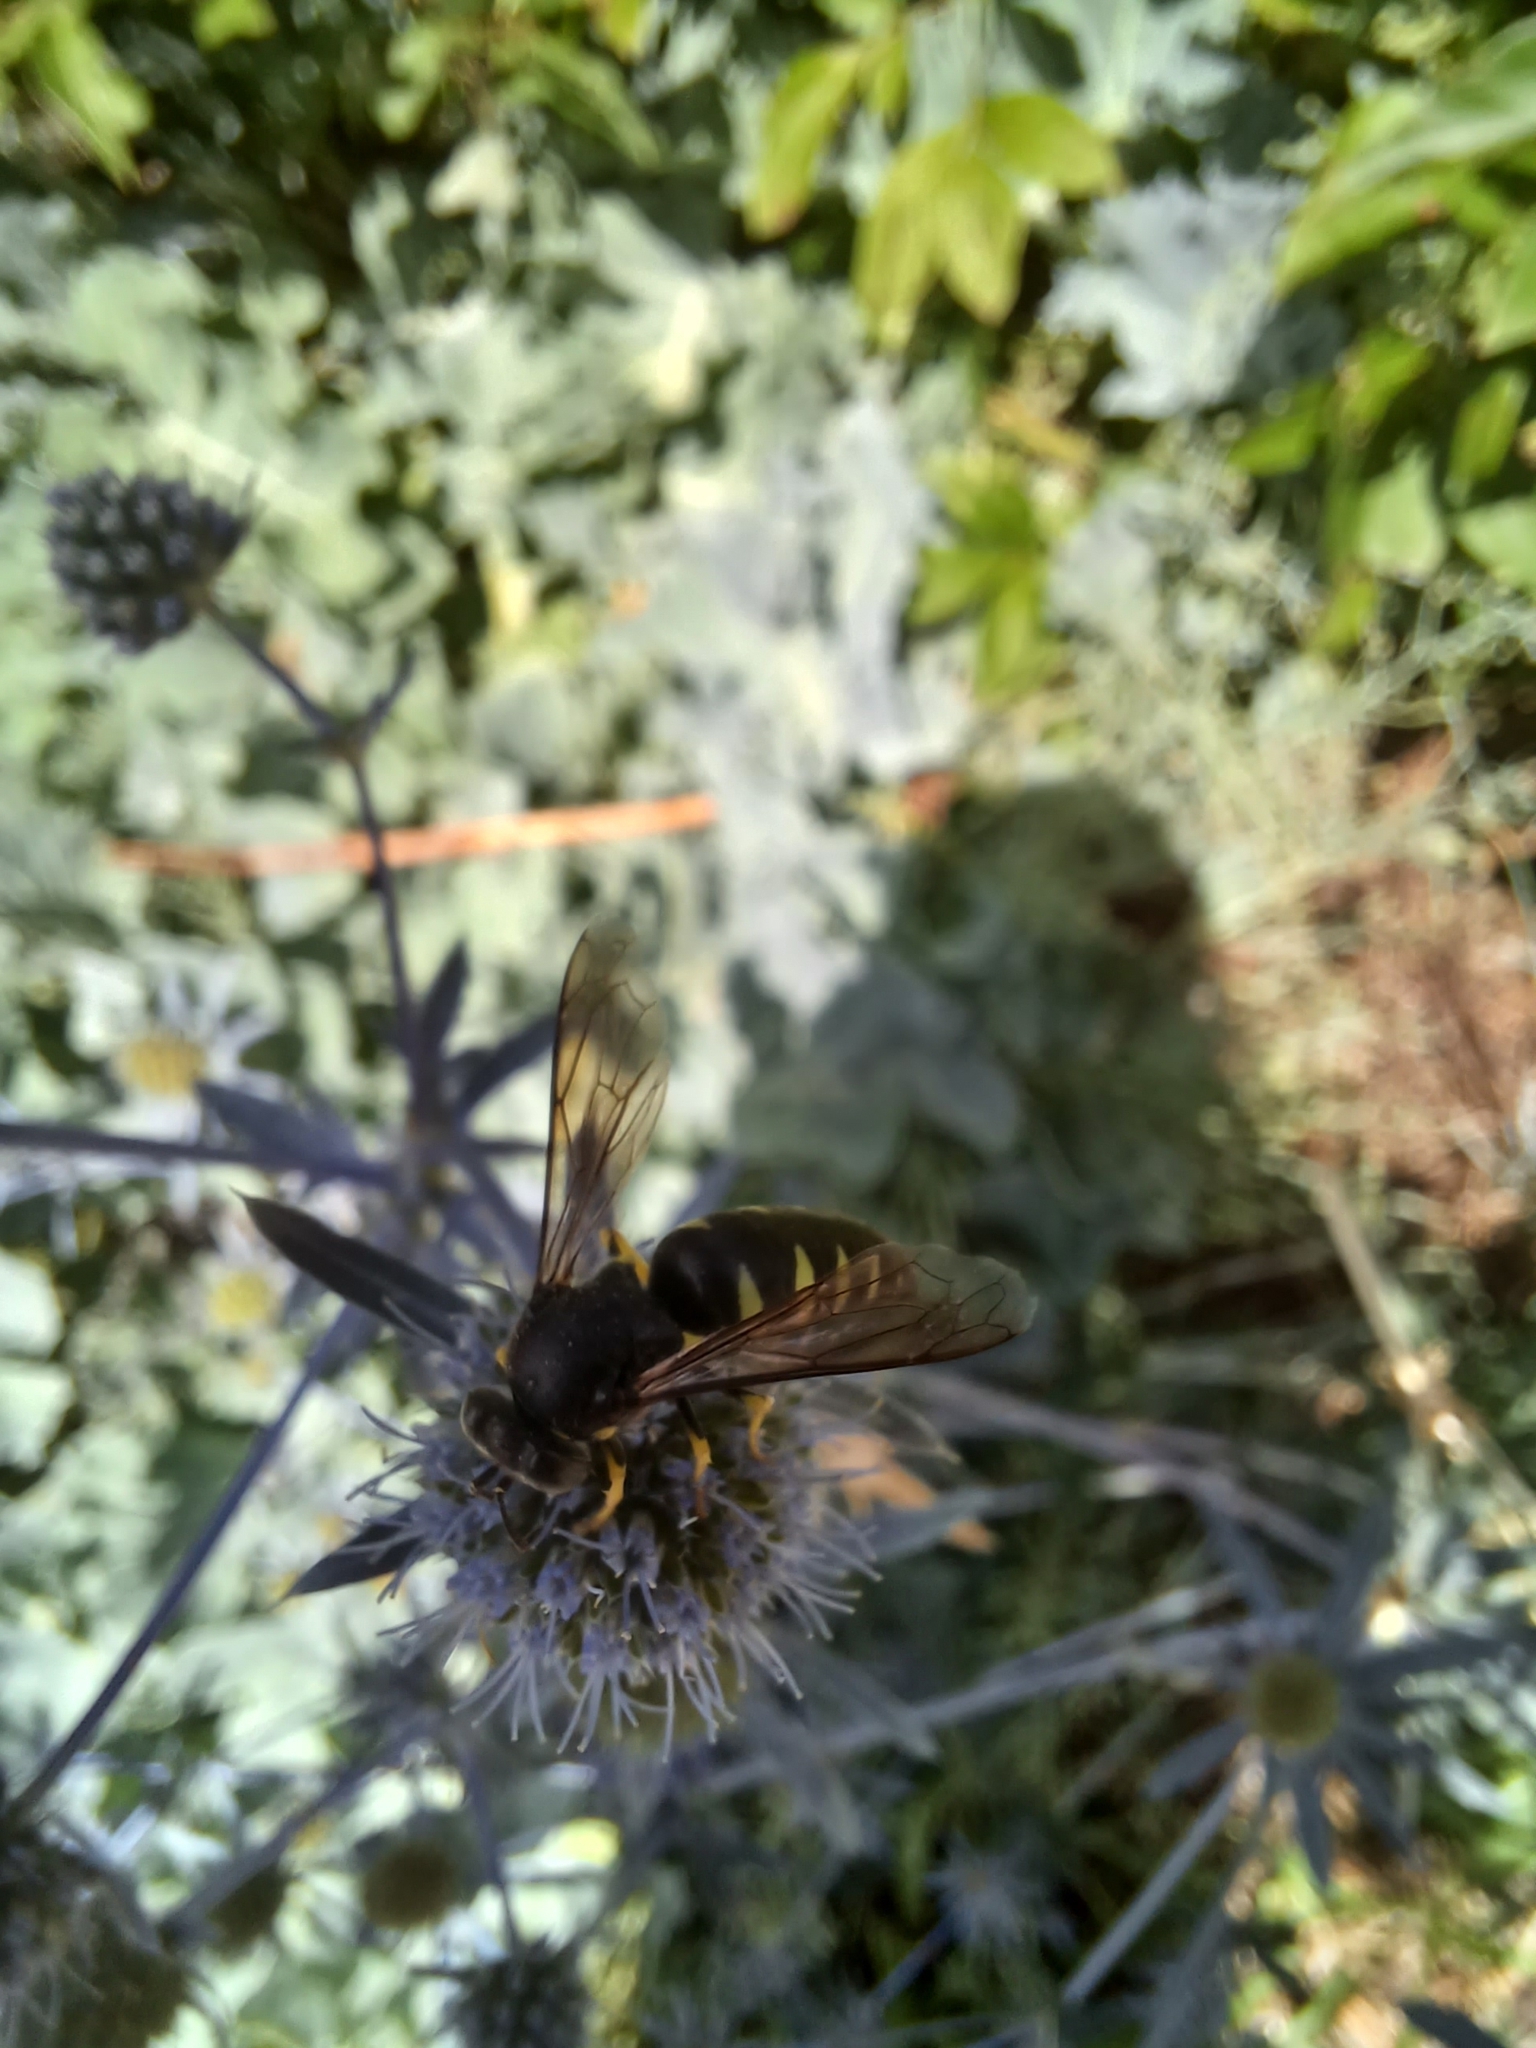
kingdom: Animalia
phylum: Arthropoda
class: Insecta
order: Hymenoptera
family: Crabronidae
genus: Bicyrtes
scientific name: Bicyrtes quadrifasciatus
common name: Four-banded stink bug hunter wasp
